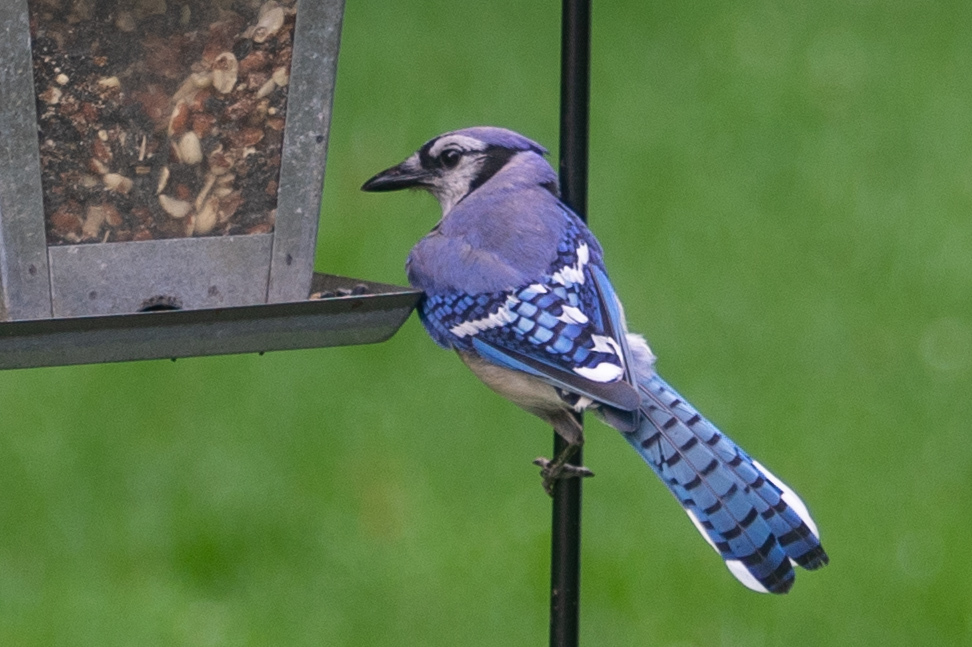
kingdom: Animalia
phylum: Chordata
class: Aves
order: Passeriformes
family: Corvidae
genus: Cyanocitta
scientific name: Cyanocitta cristata
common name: Blue jay
